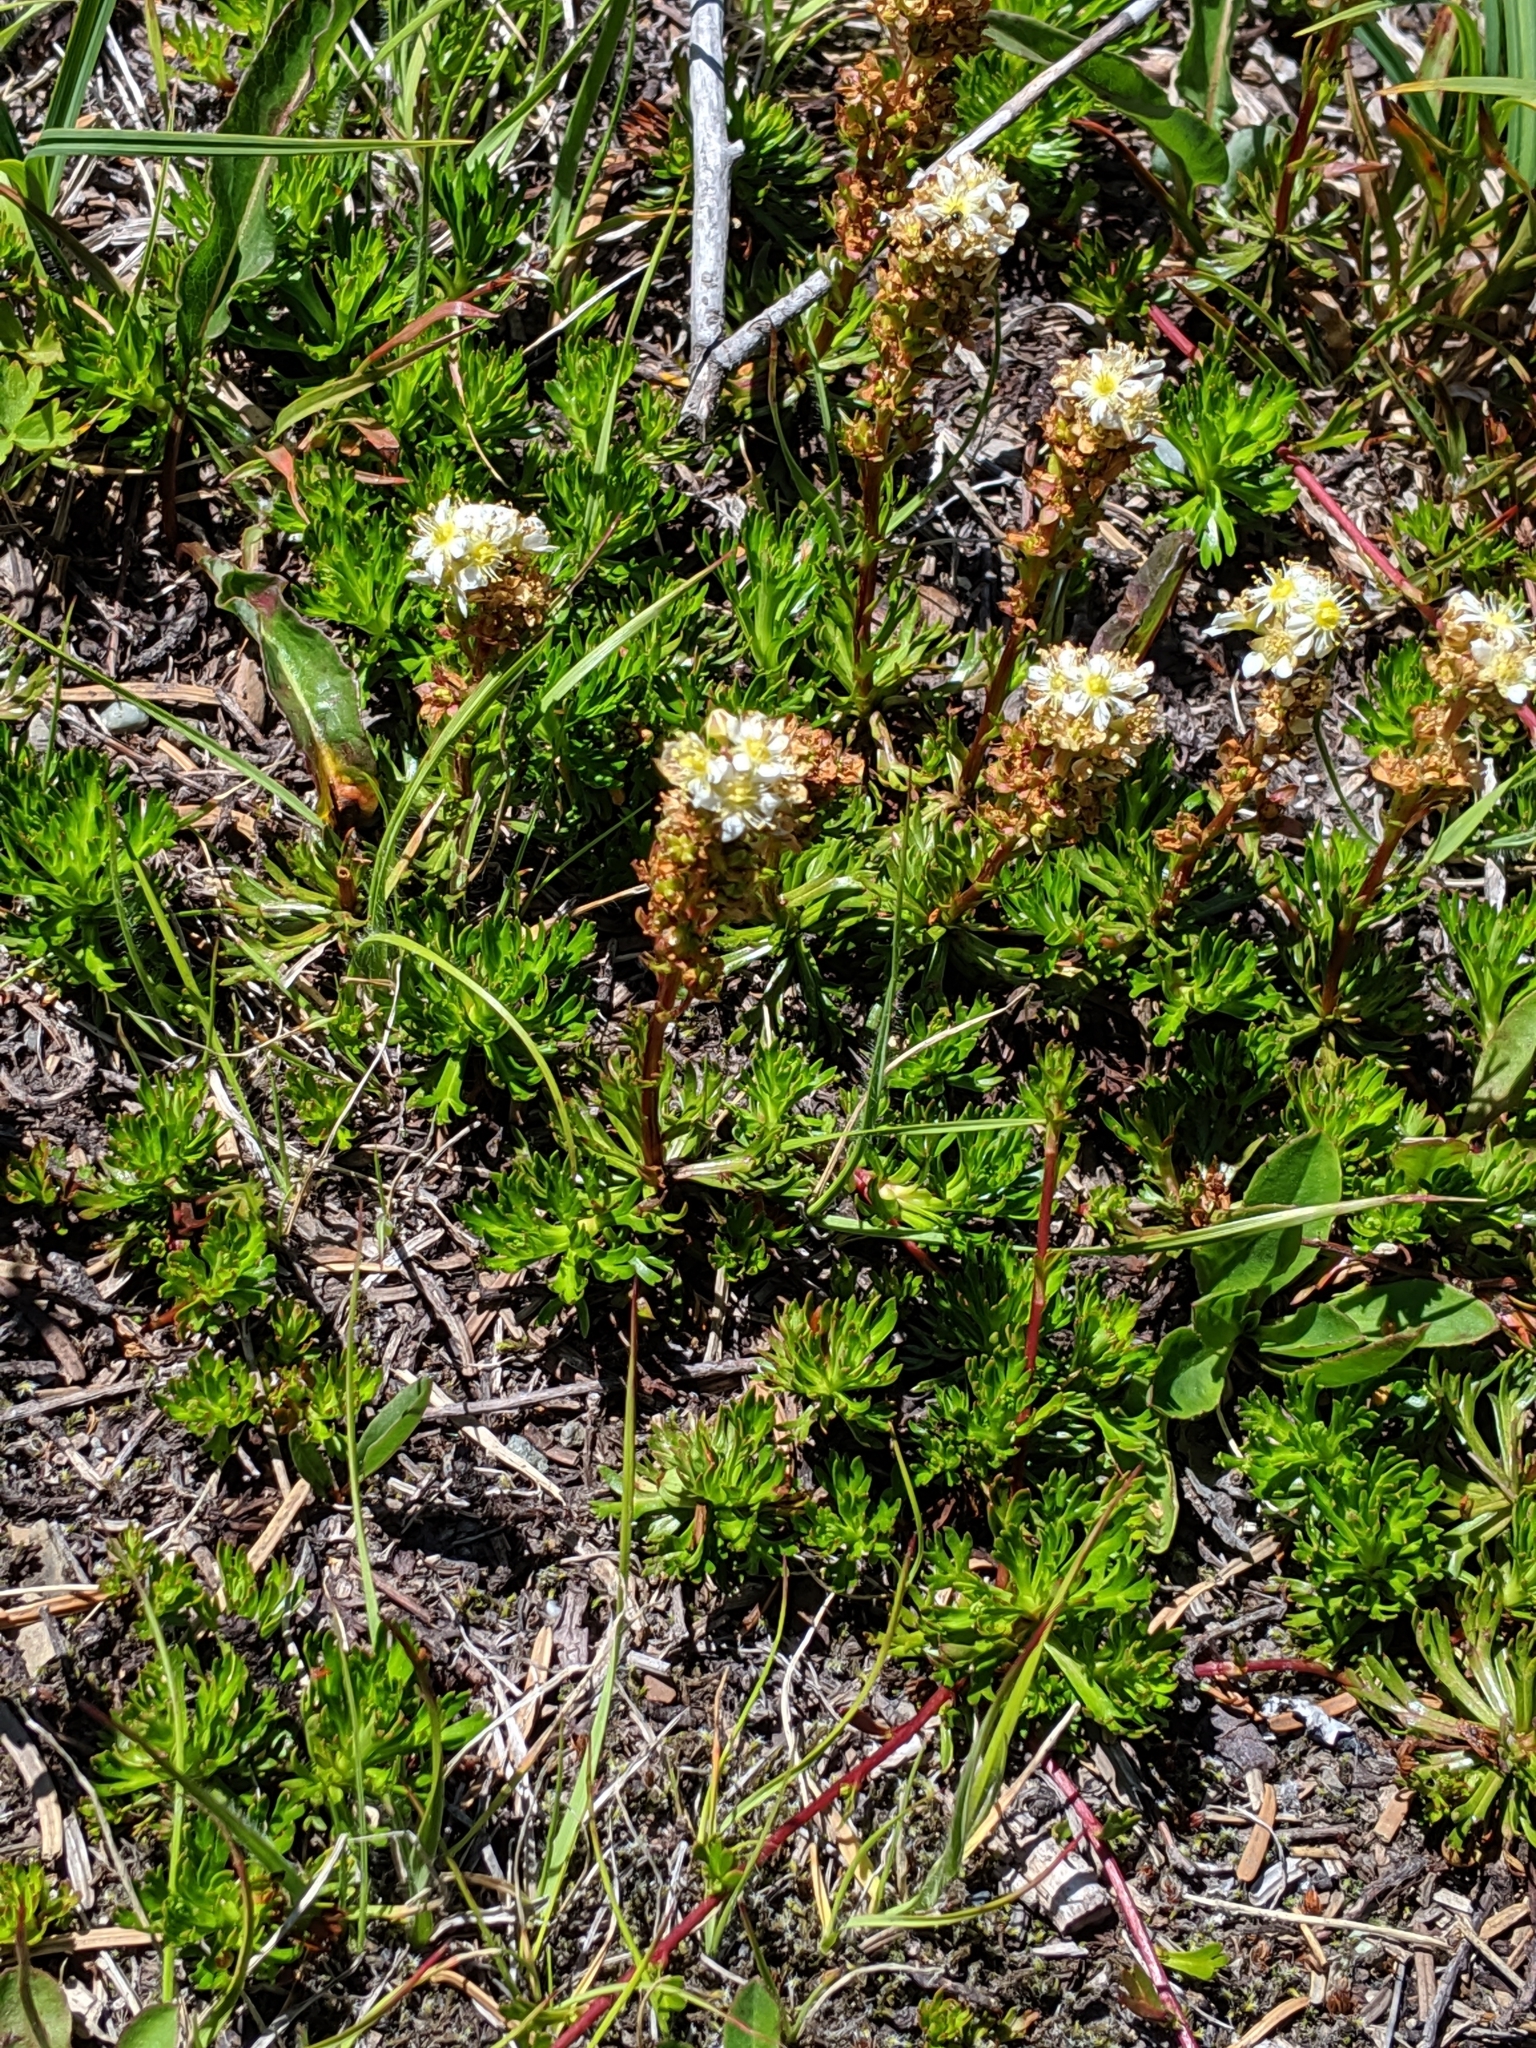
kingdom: Plantae
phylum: Tracheophyta
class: Magnoliopsida
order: Rosales
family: Rosaceae
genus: Luetkea
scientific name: Luetkea pectinata
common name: Partridgefoot
